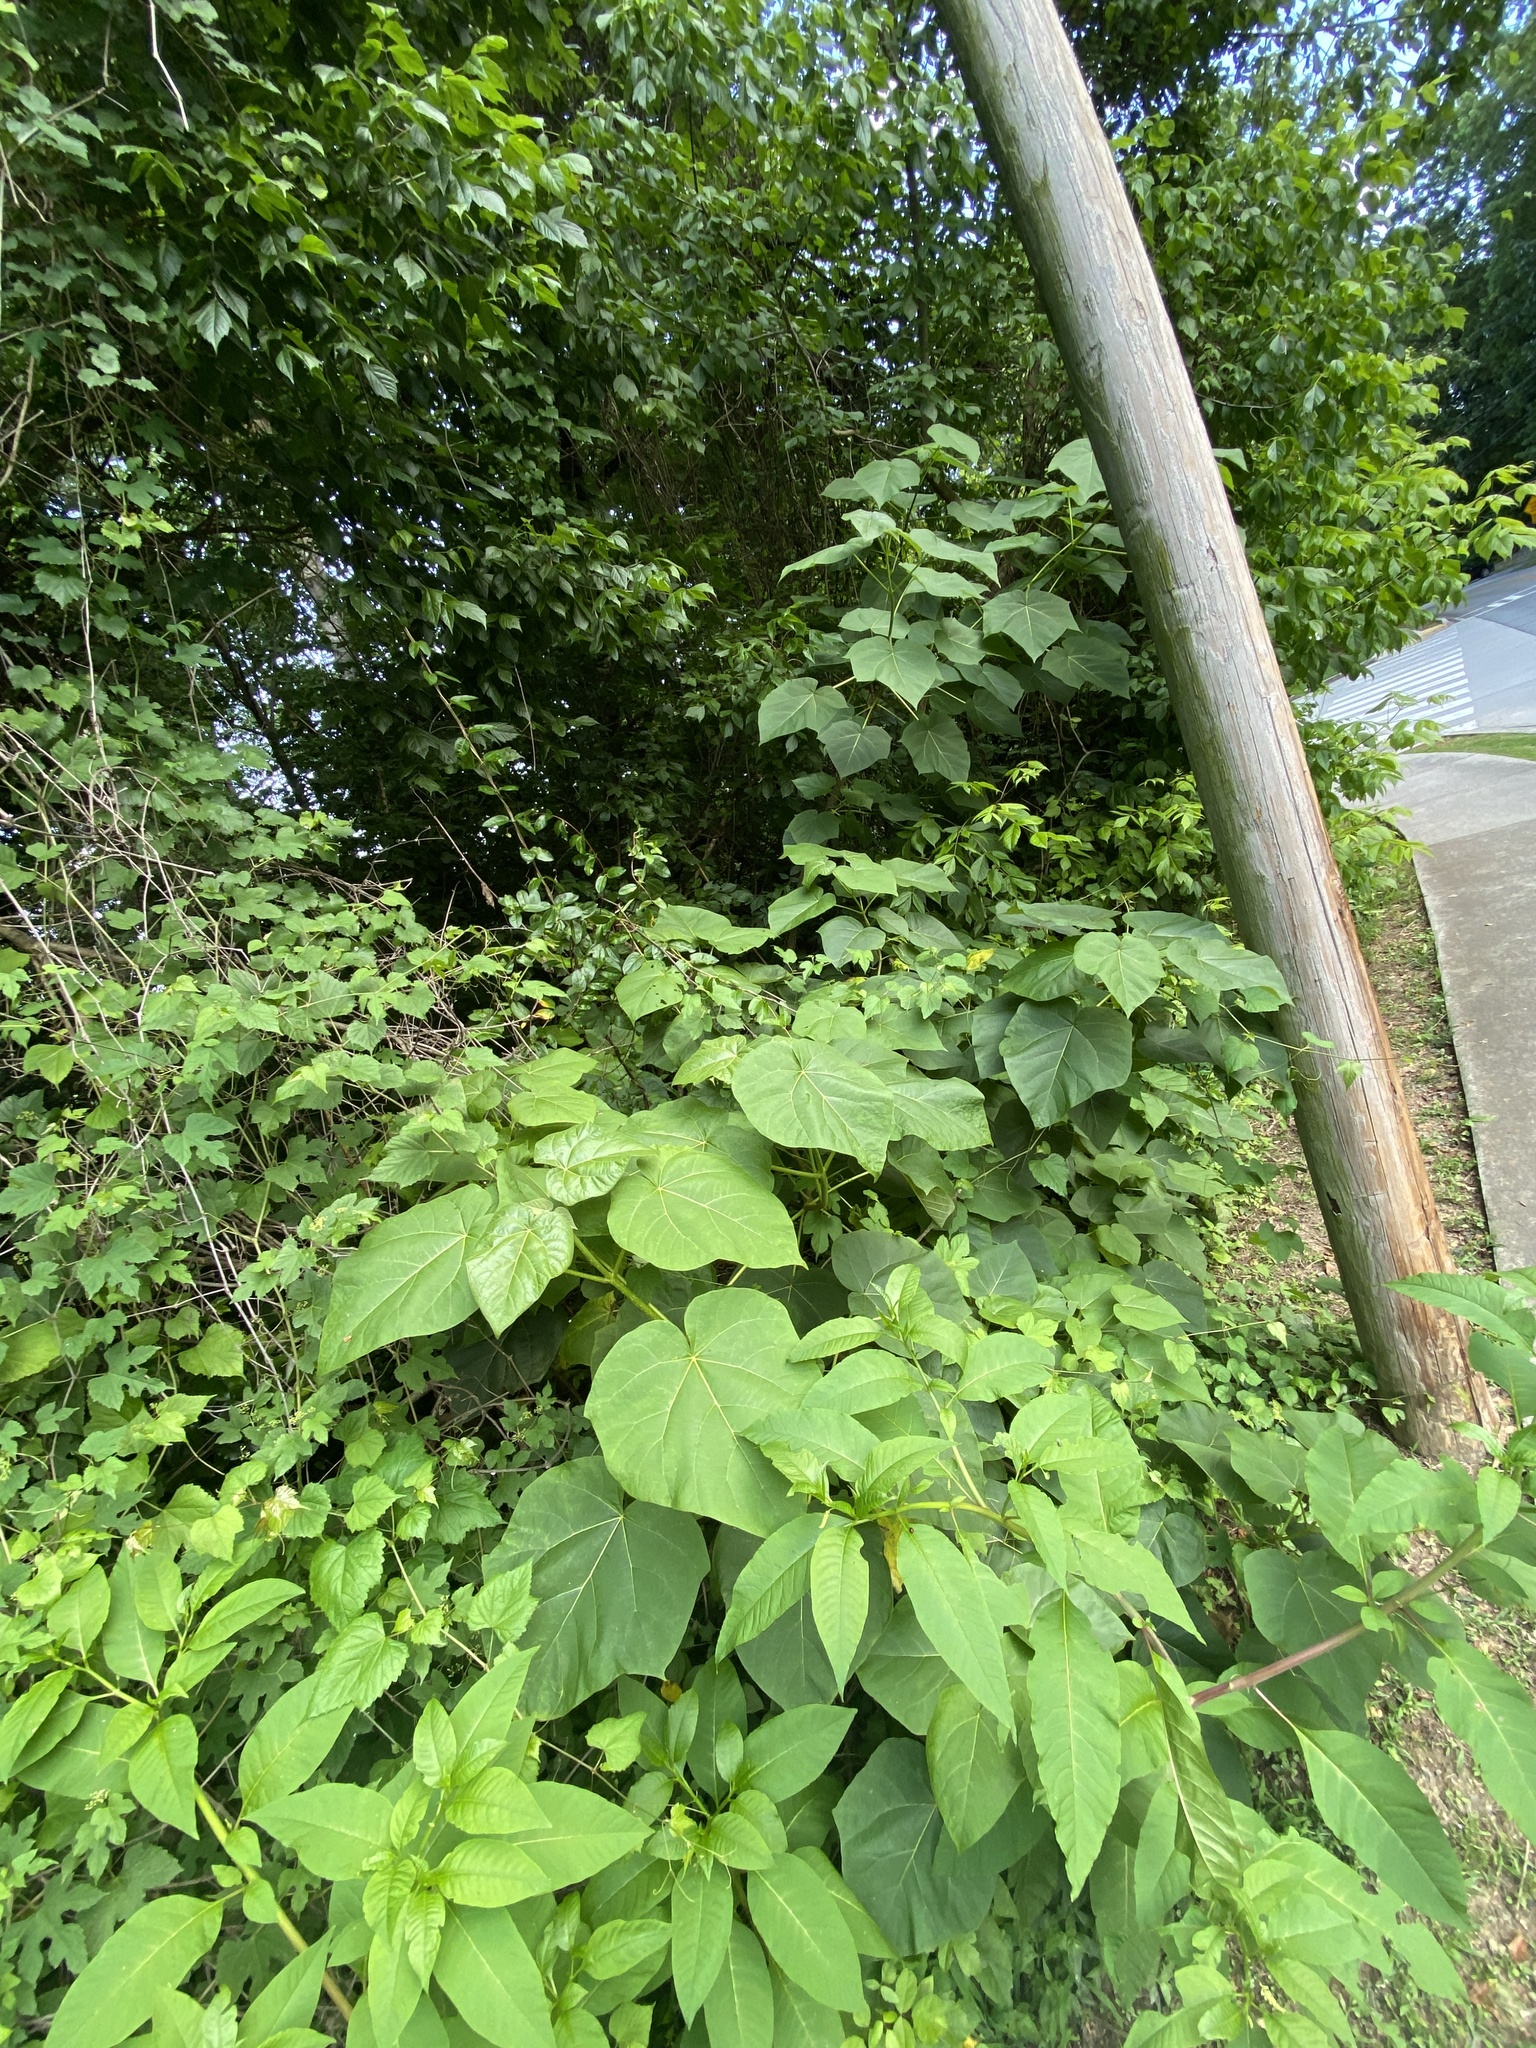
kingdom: Plantae
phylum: Tracheophyta
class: Magnoliopsida
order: Lamiales
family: Paulowniaceae
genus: Paulownia
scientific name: Paulownia tomentosa
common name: Foxglove-tree
